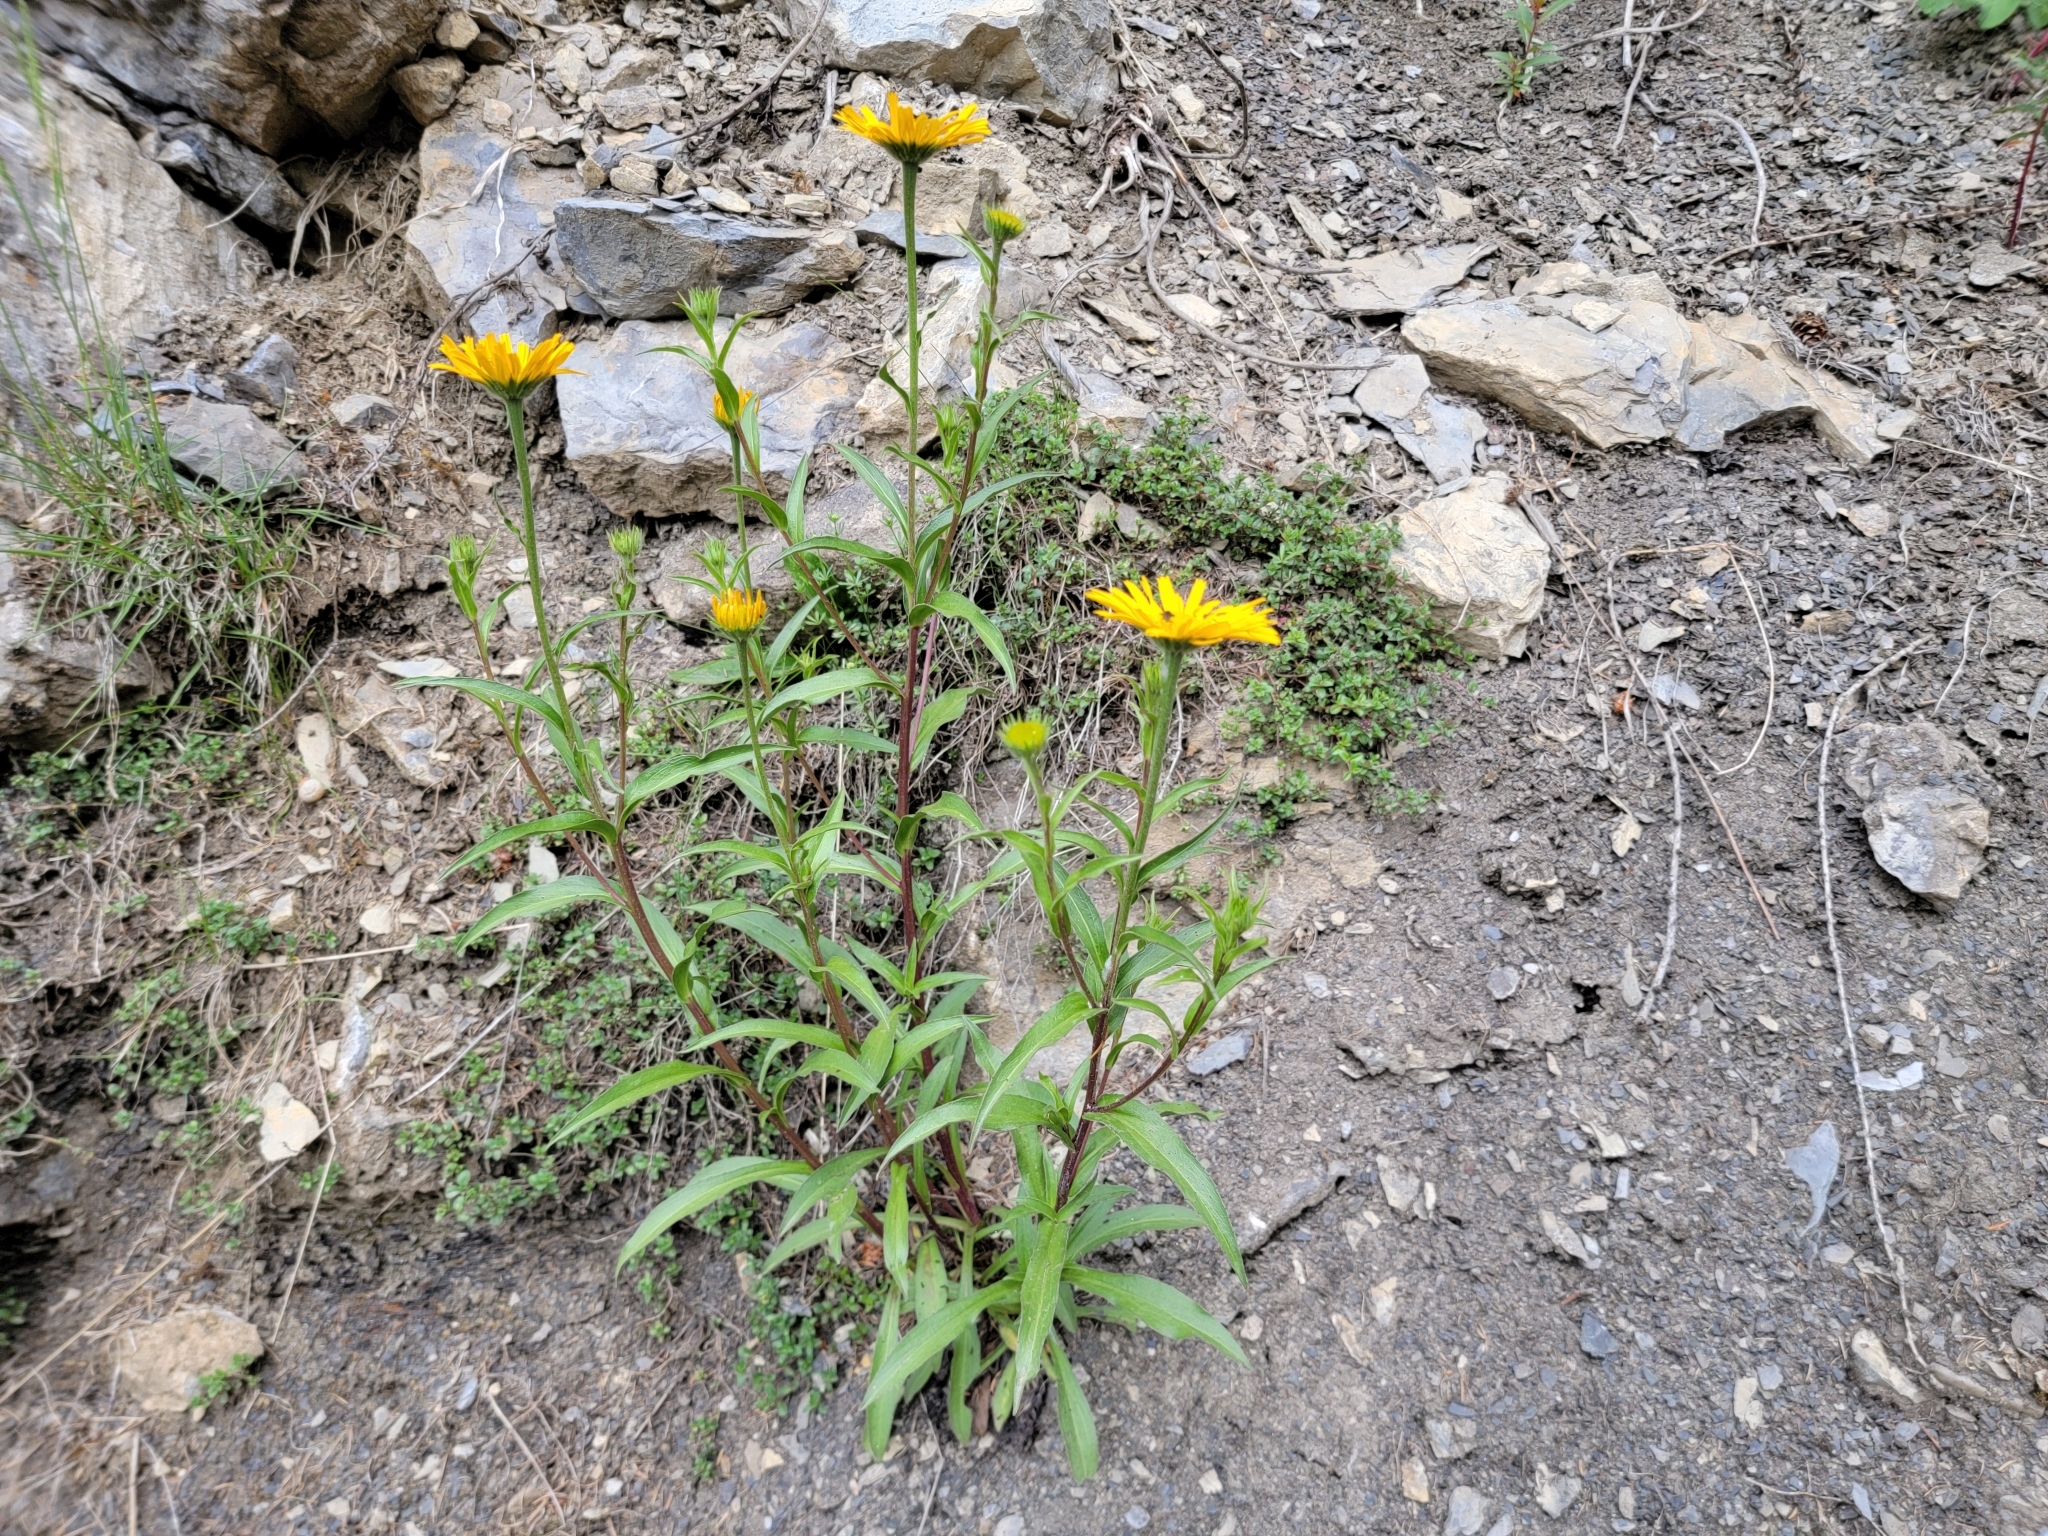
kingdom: Plantae
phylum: Tracheophyta
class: Magnoliopsida
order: Asterales
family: Asteraceae
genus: Buphthalmum
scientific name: Buphthalmum salicifolium
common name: Willow-leaved yellow-oxeye
